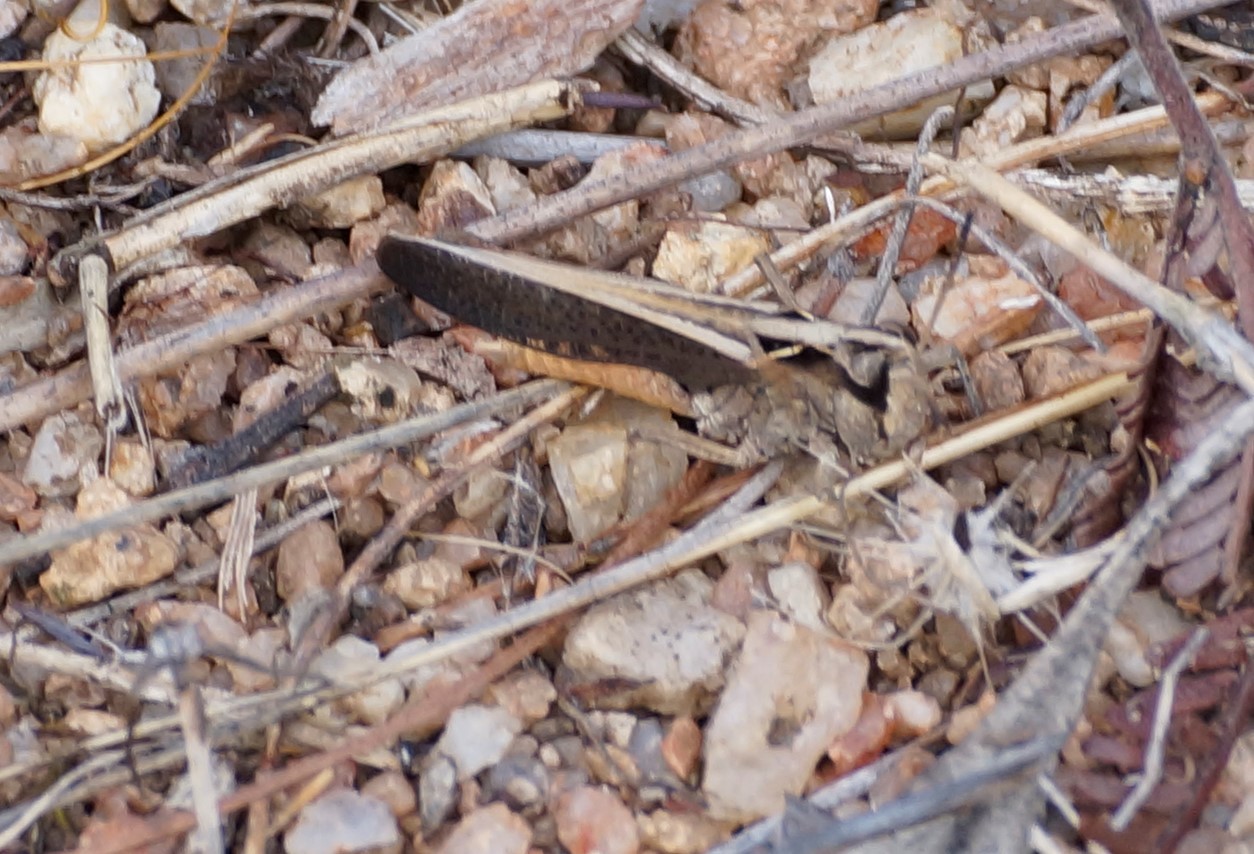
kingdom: Animalia
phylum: Arthropoda
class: Insecta
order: Orthoptera
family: Acrididae
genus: Cryptobothrus
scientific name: Cryptobothrus chrysophorus
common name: Golden bandwing
